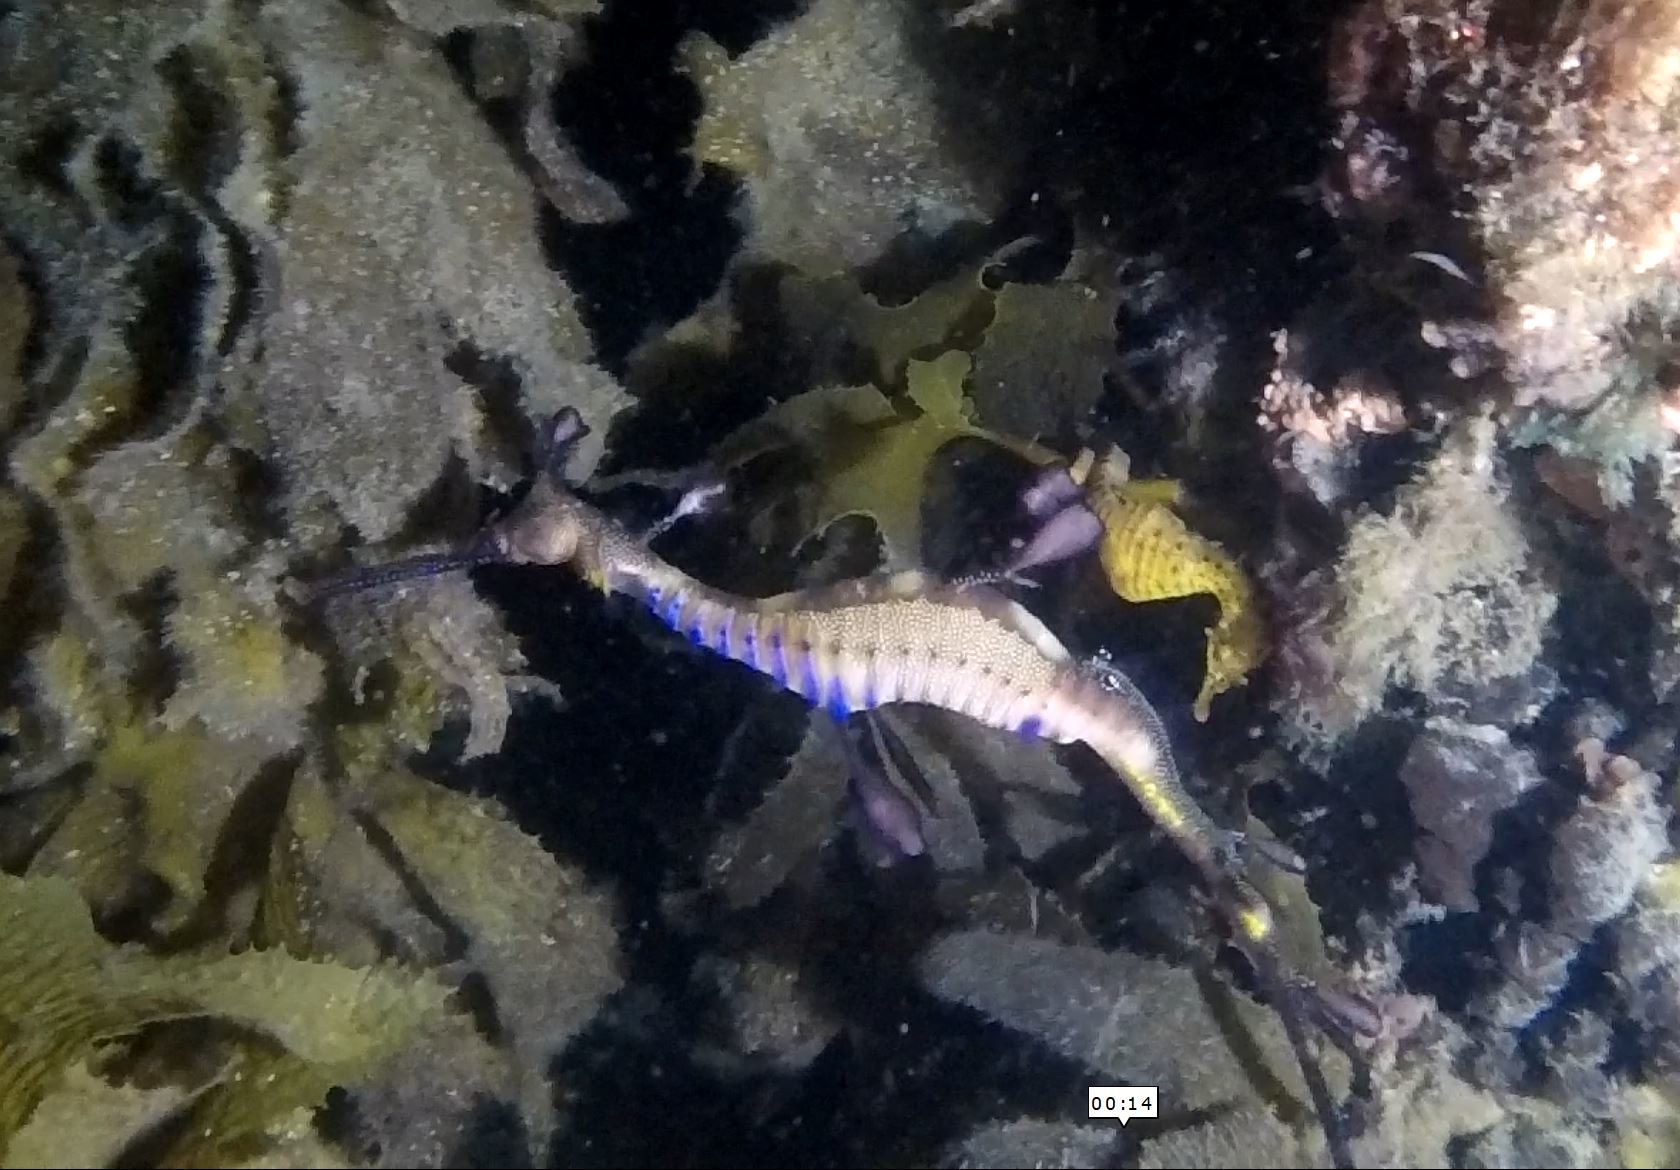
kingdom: Animalia
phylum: Chordata
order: Syngnathiformes
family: Syngnathidae
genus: Phyllopteryx
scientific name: Phyllopteryx taeniolatus
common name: Common seadragon
